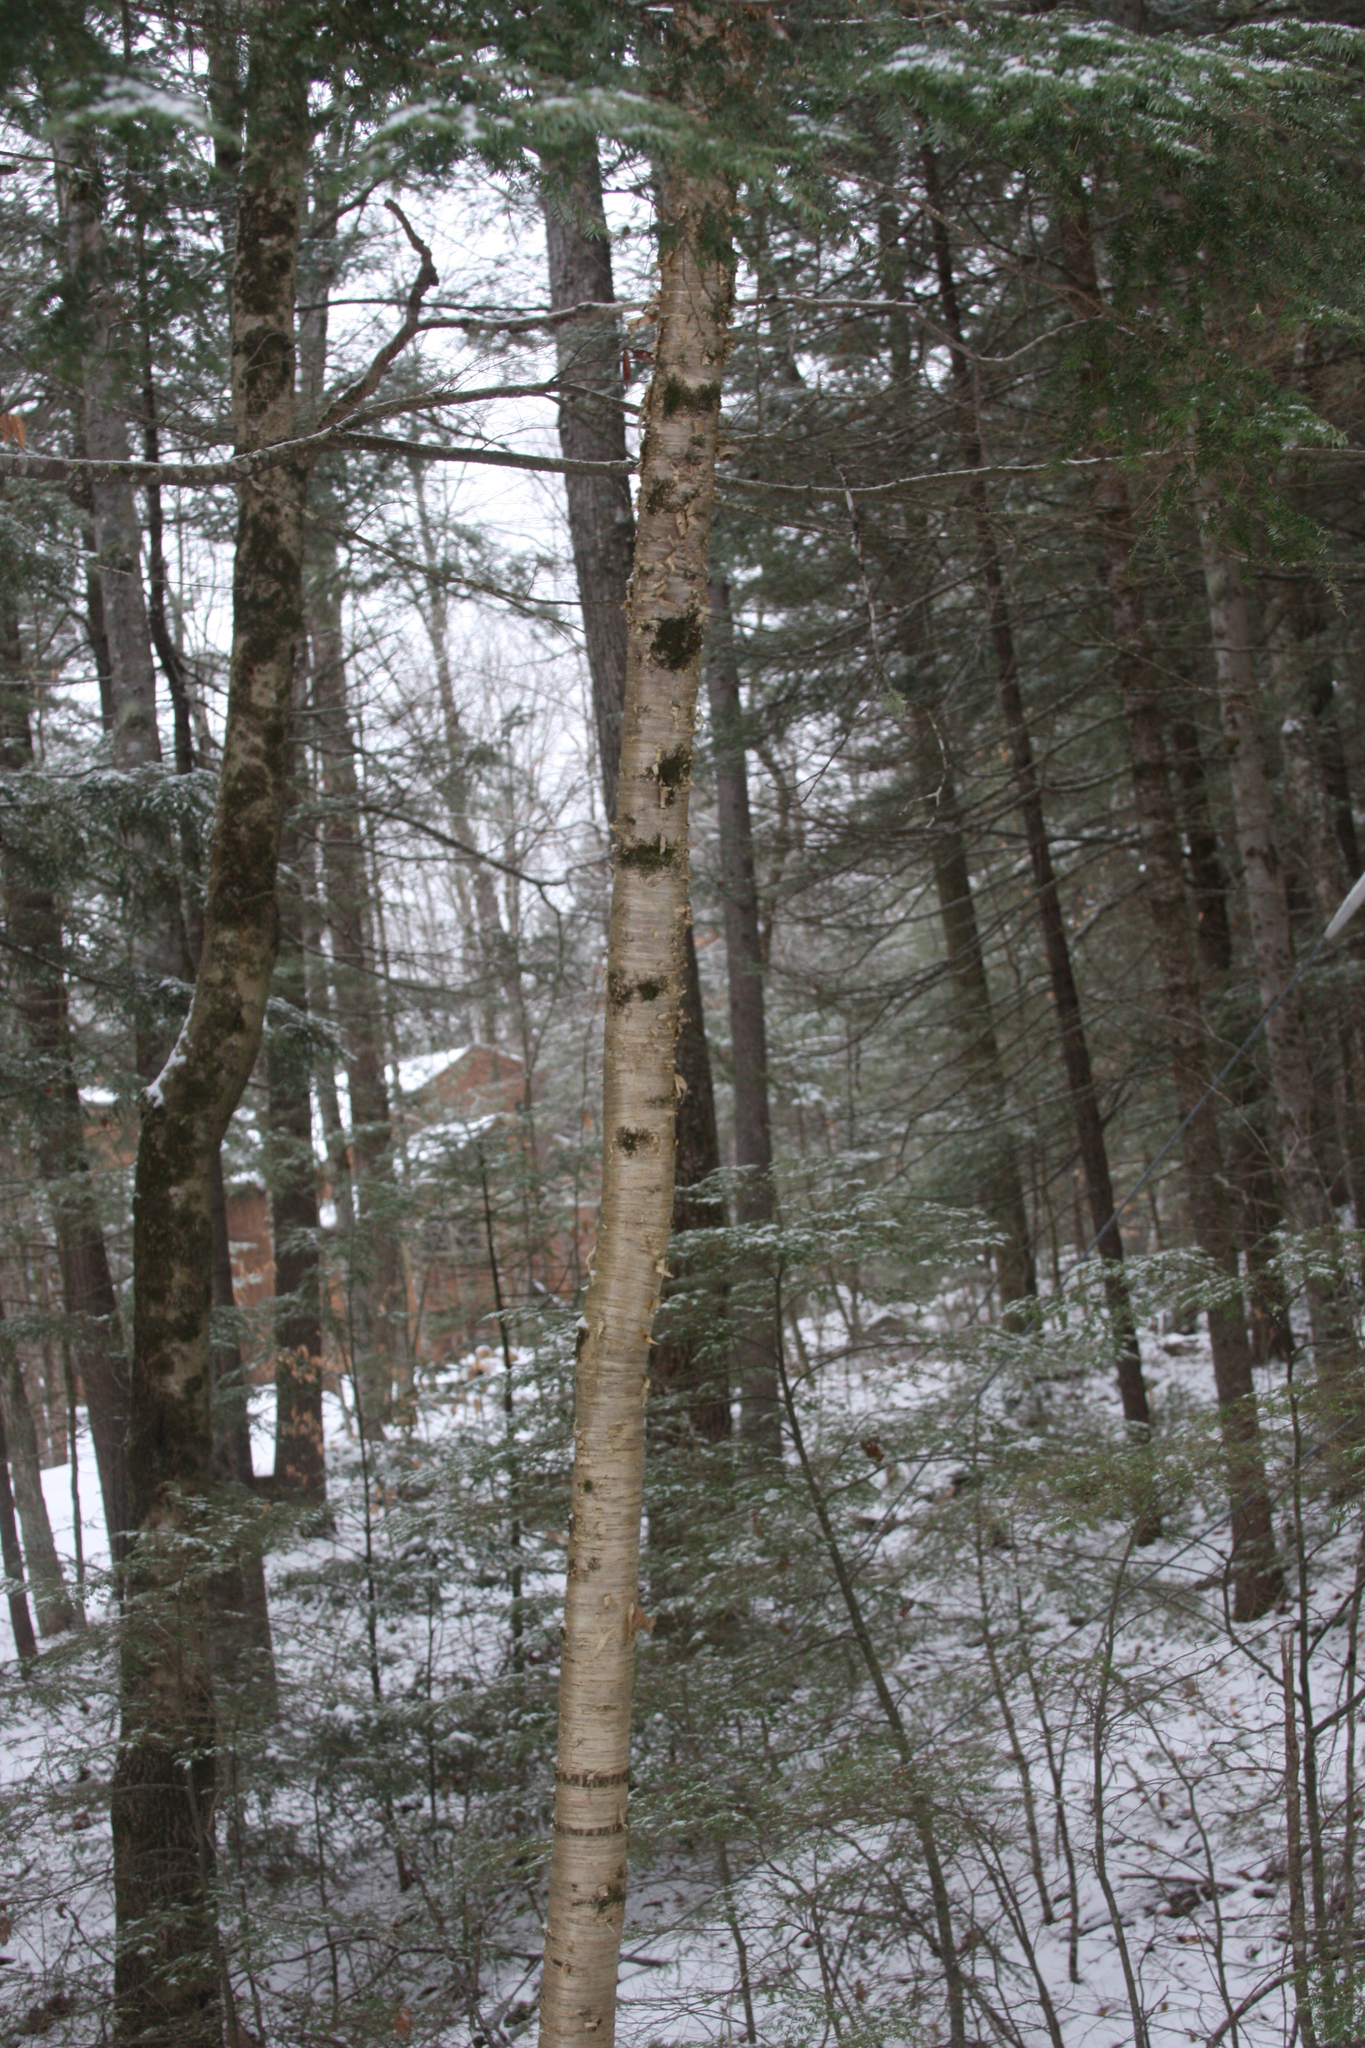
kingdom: Plantae
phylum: Tracheophyta
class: Magnoliopsida
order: Fagales
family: Betulaceae
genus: Betula
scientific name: Betula alleghaniensis
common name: Yellow birch
